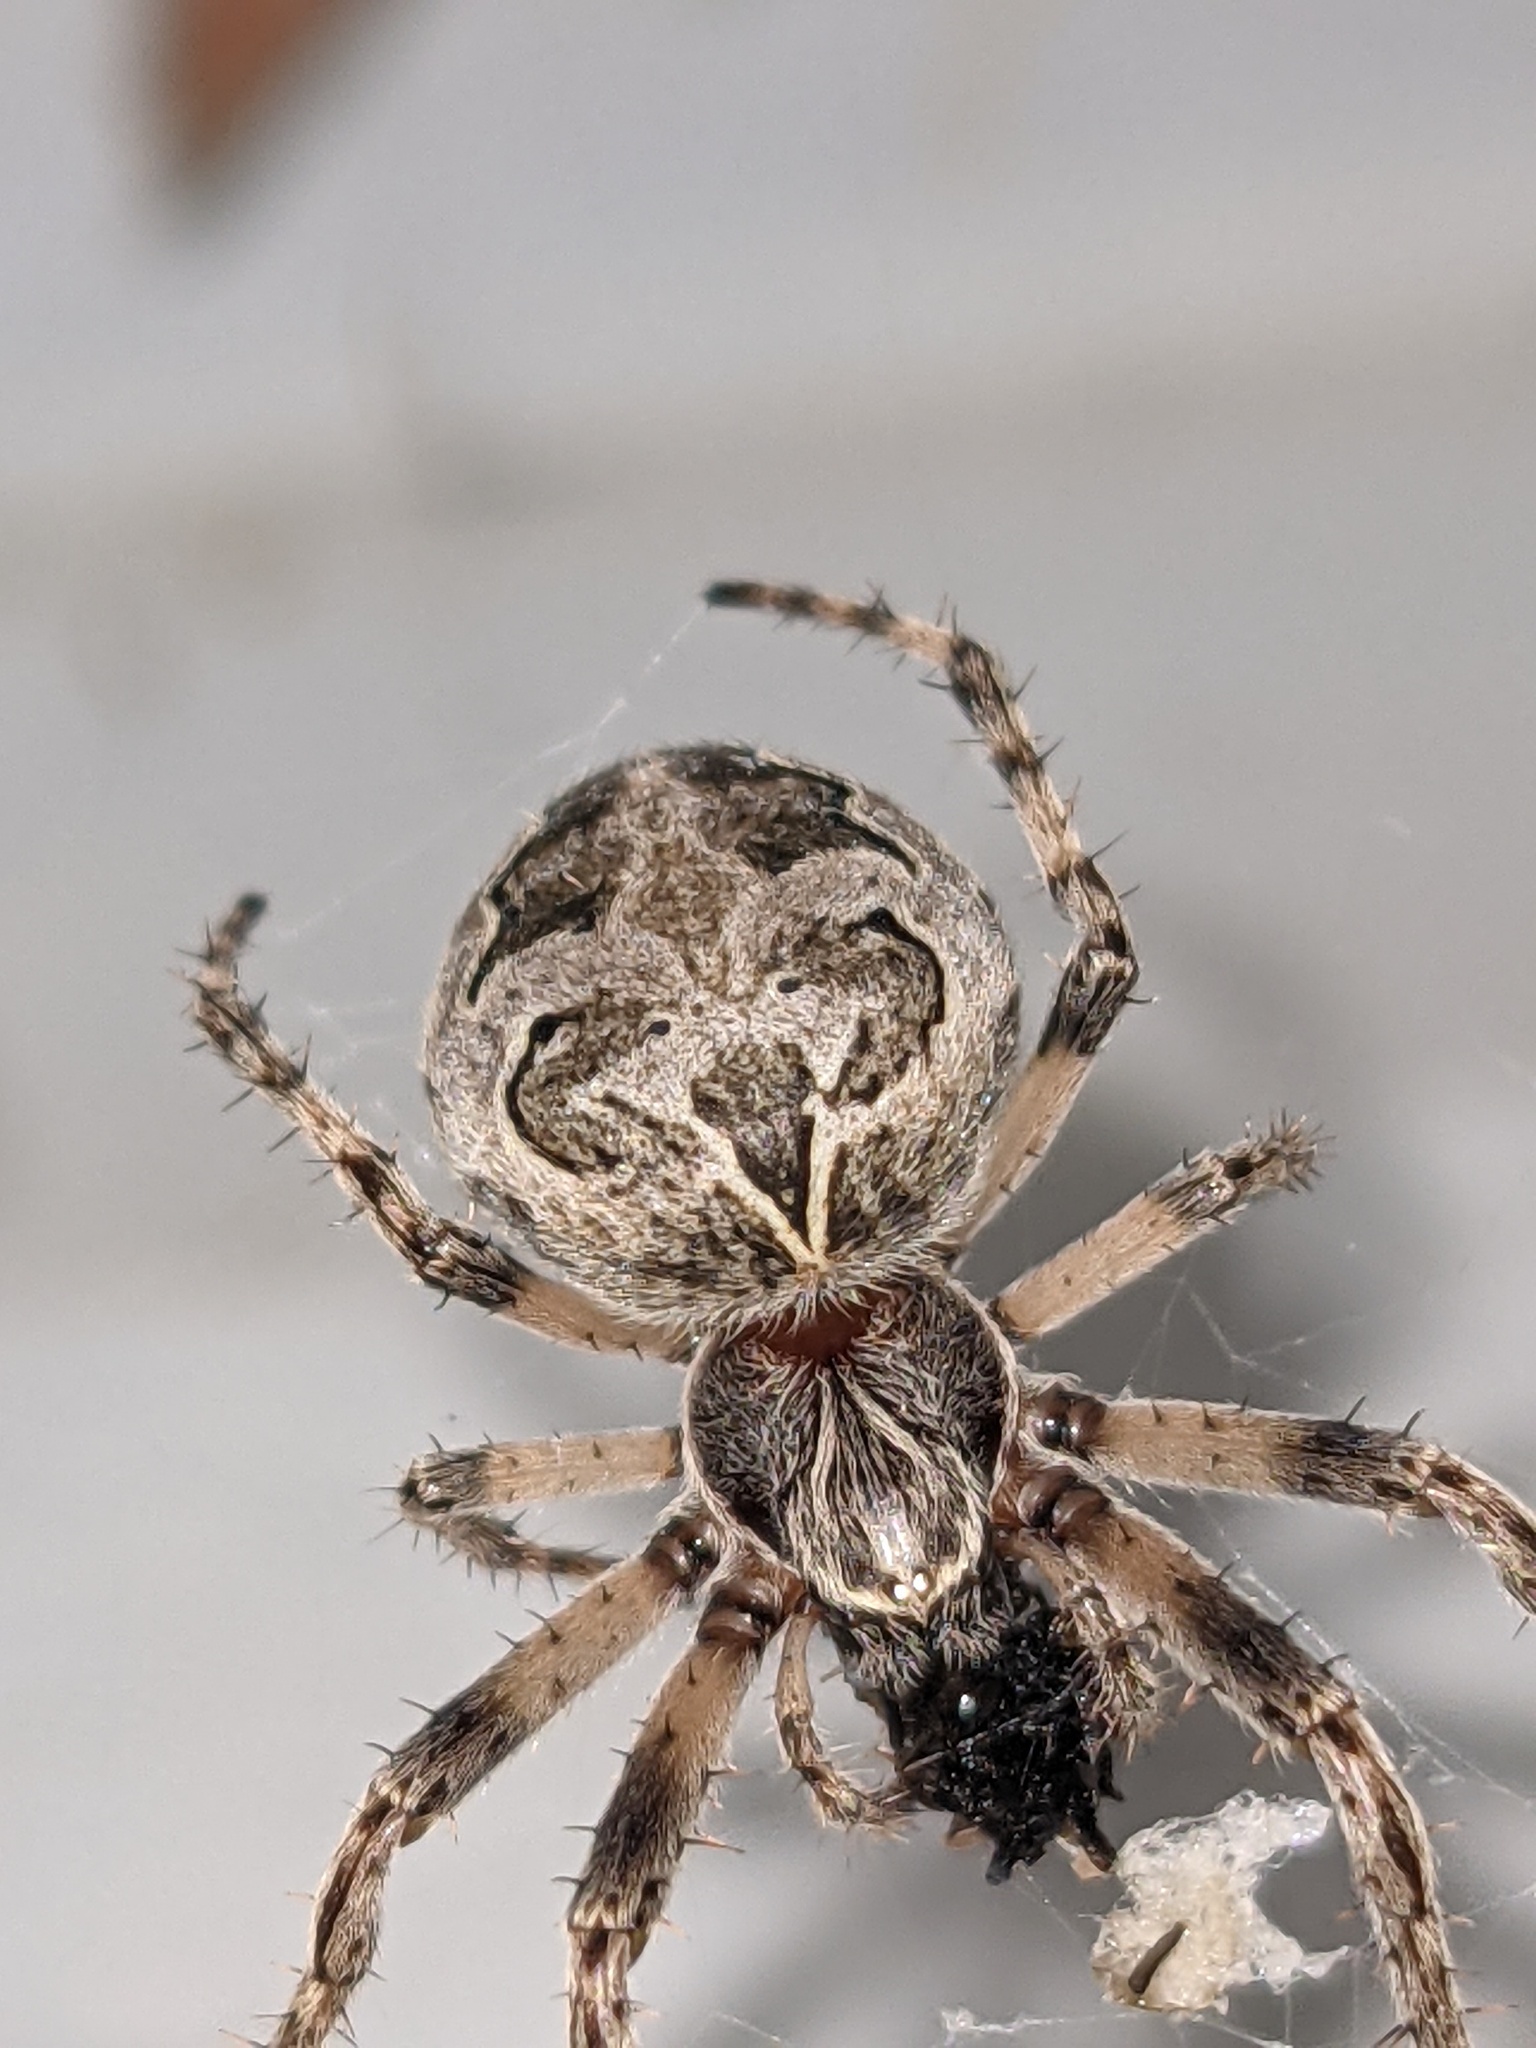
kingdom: Animalia
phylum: Arthropoda
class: Arachnida
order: Araneae
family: Araneidae
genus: Larinioides
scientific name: Larinioides sclopetarius
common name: Bridge orbweaver
